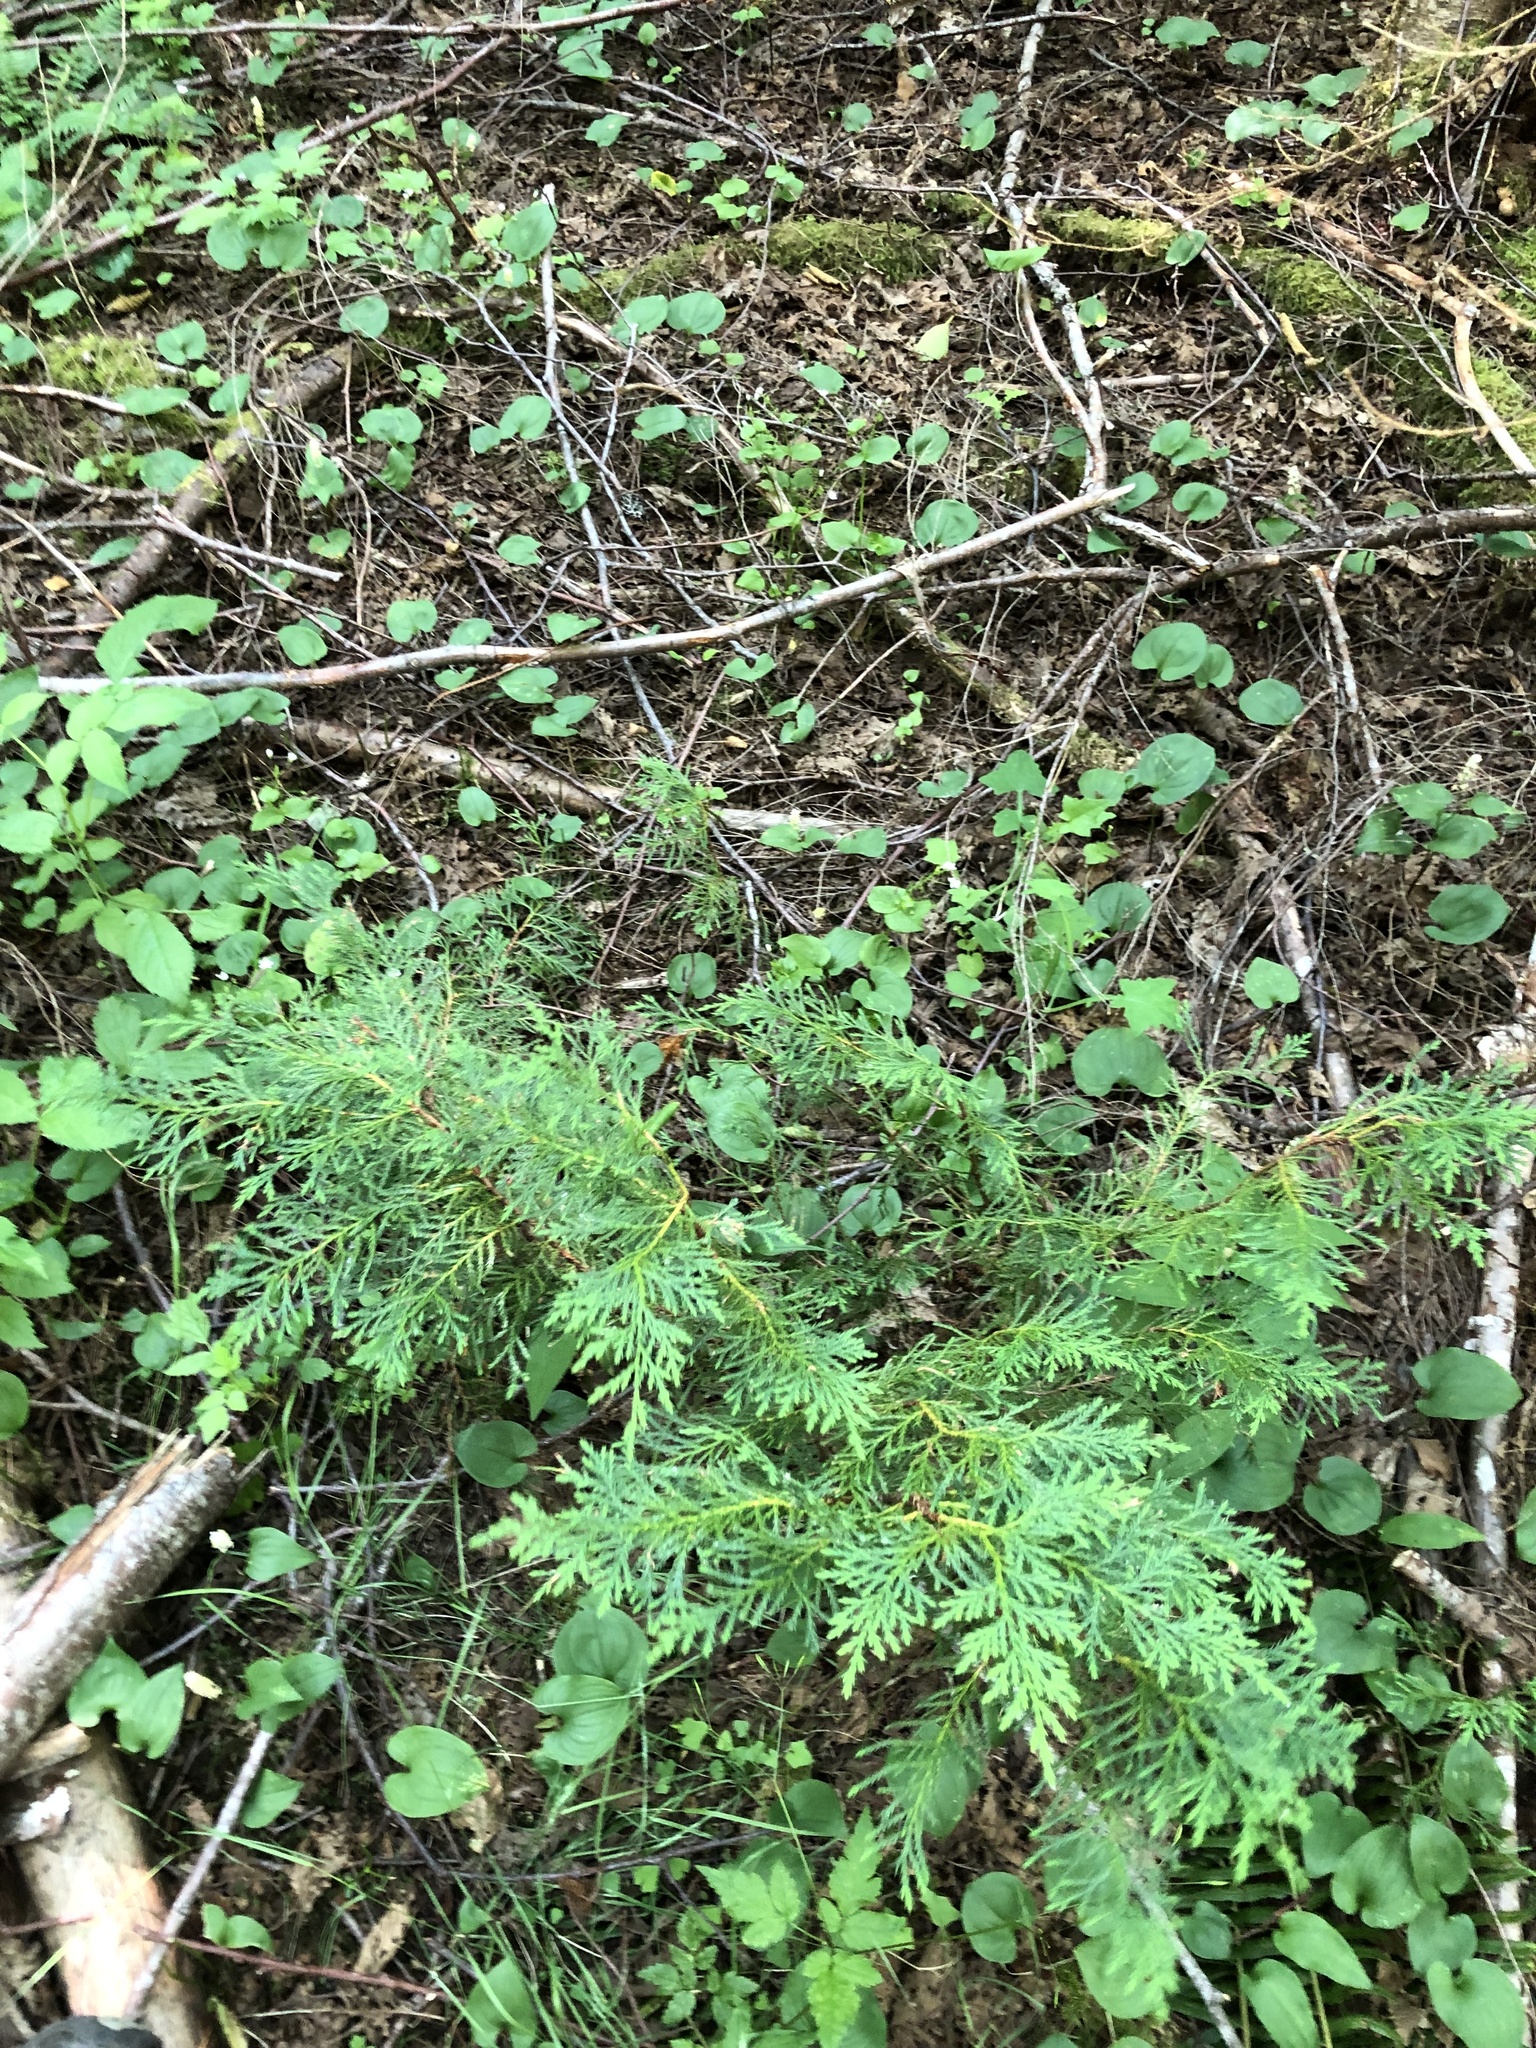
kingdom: Plantae
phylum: Tracheophyta
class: Pinopsida
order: Pinales
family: Cupressaceae
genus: Xanthocyparis
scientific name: Xanthocyparis nootkatensis
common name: Nootka cypress
